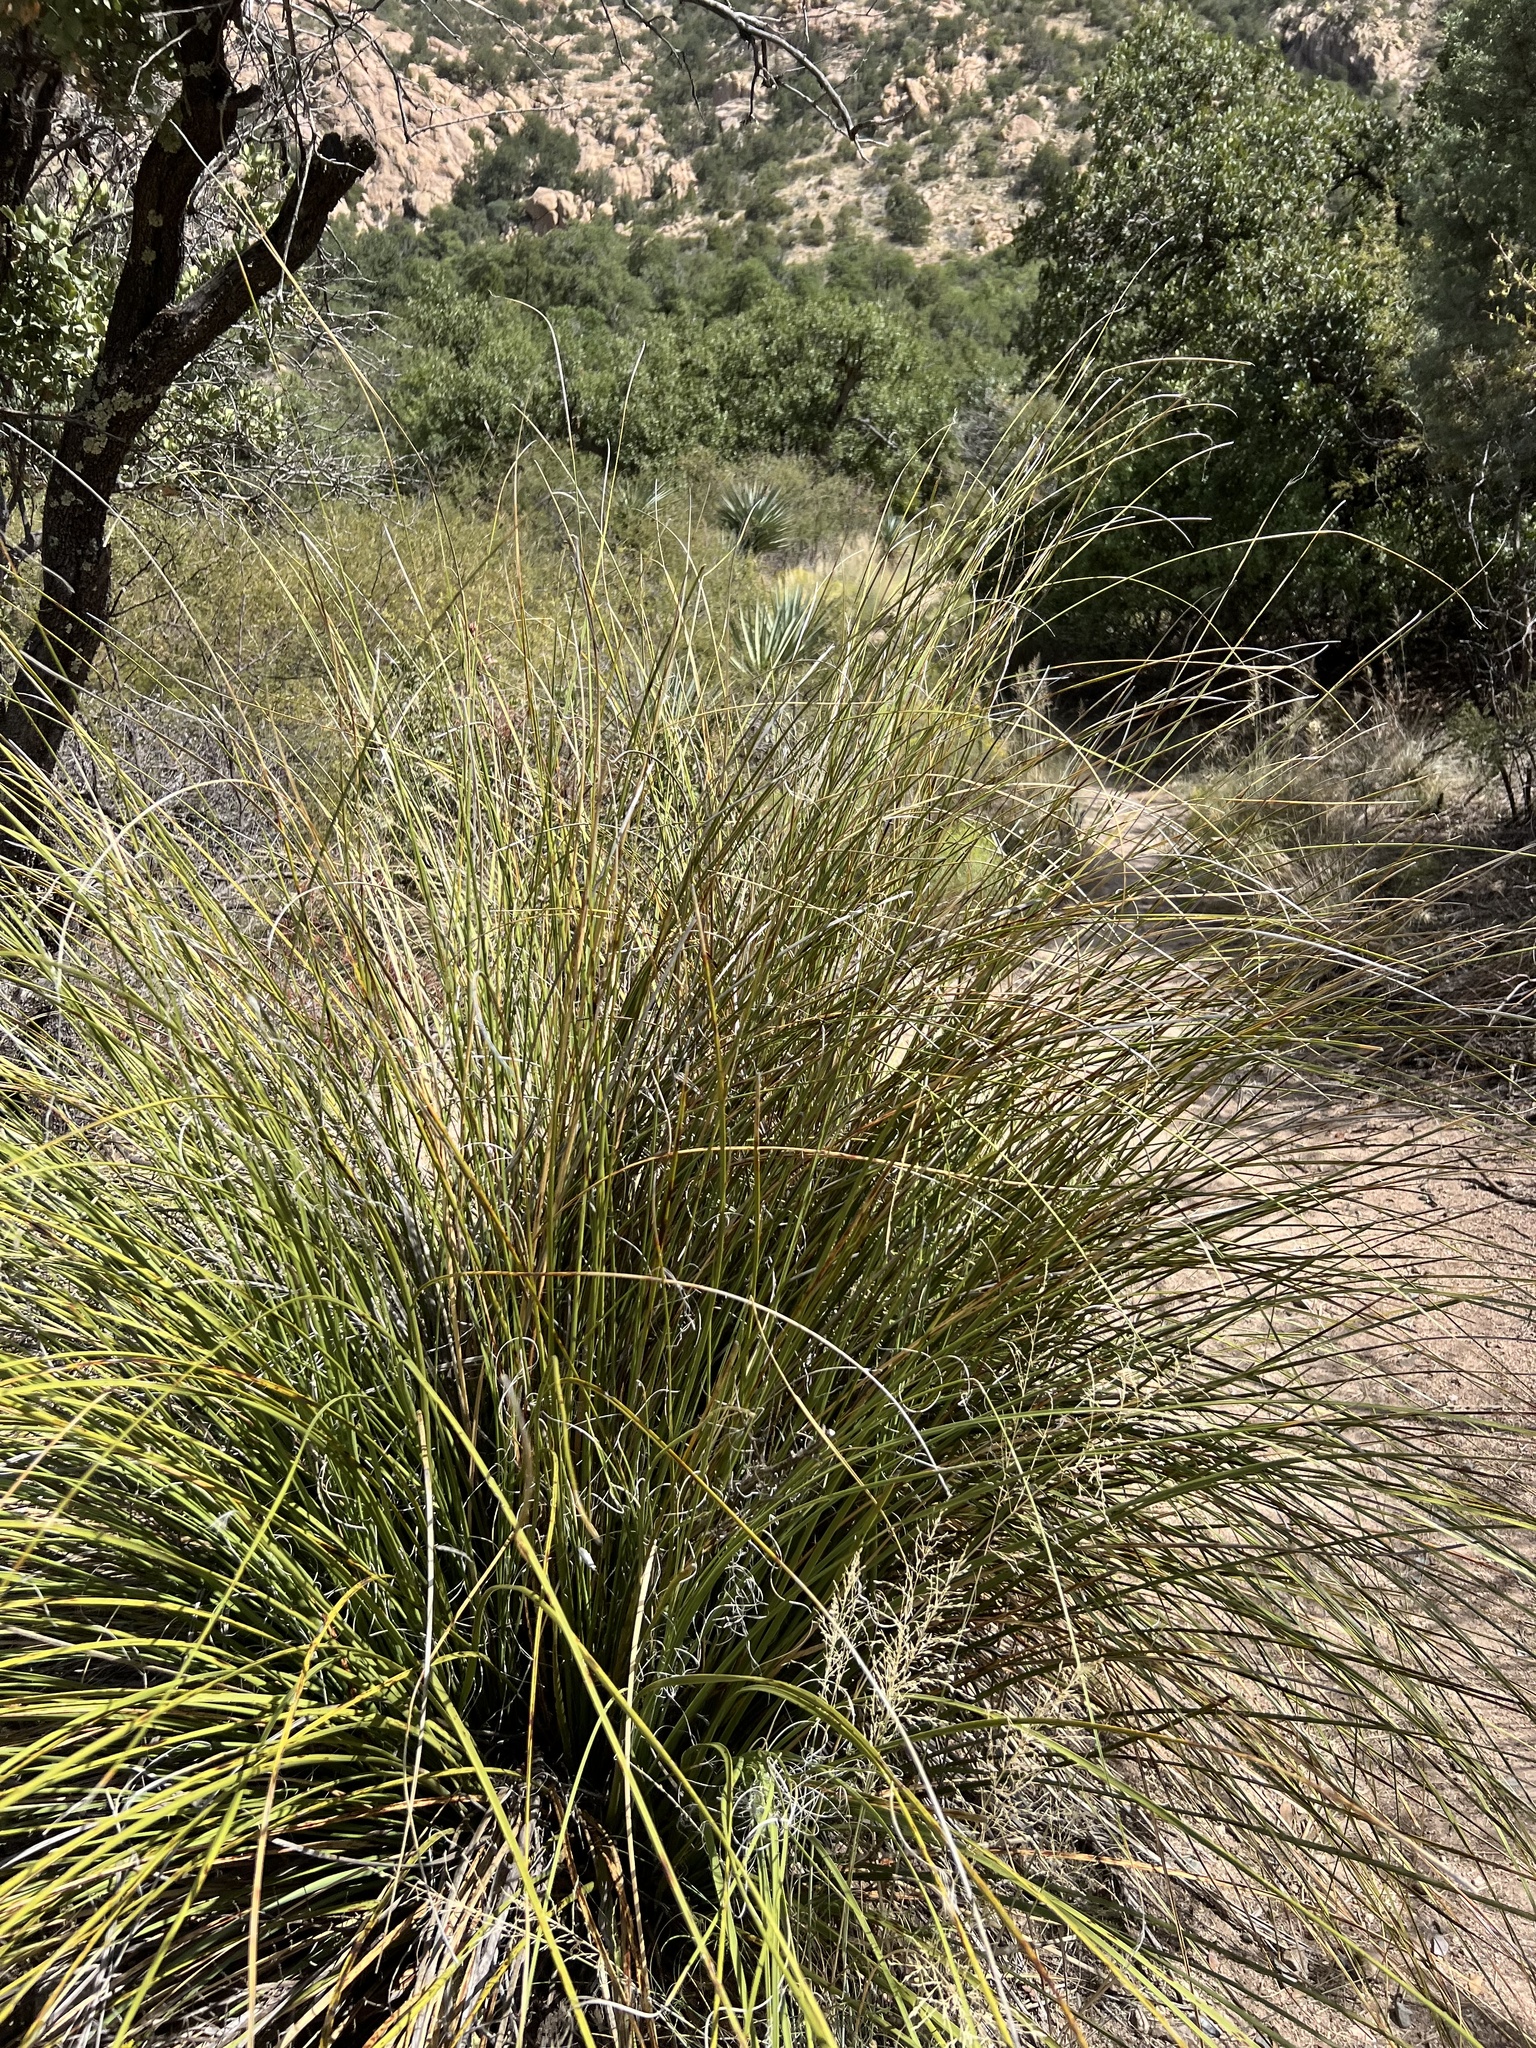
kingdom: Plantae
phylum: Tracheophyta
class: Liliopsida
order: Asparagales
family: Asparagaceae
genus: Nolina
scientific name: Nolina microcarpa
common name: Bear-grass
